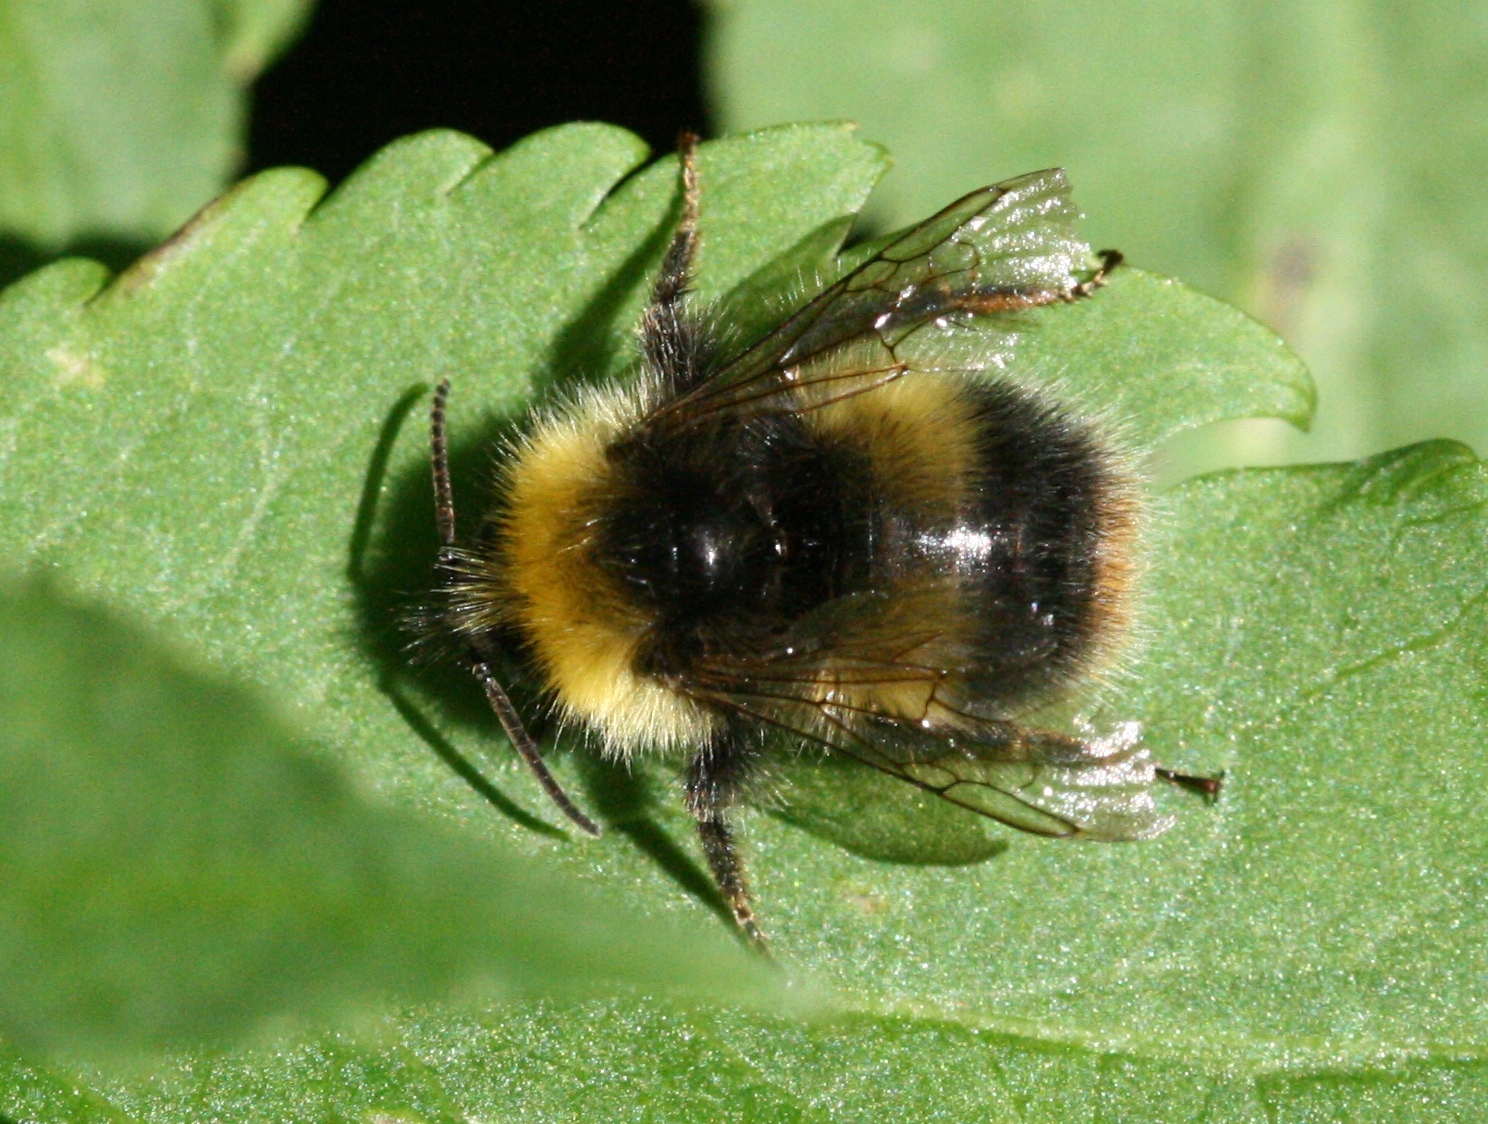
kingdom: Animalia
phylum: Arthropoda
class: Insecta
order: Hymenoptera
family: Apidae
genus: Bombus
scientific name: Bombus pratorum
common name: Early humble-bee
